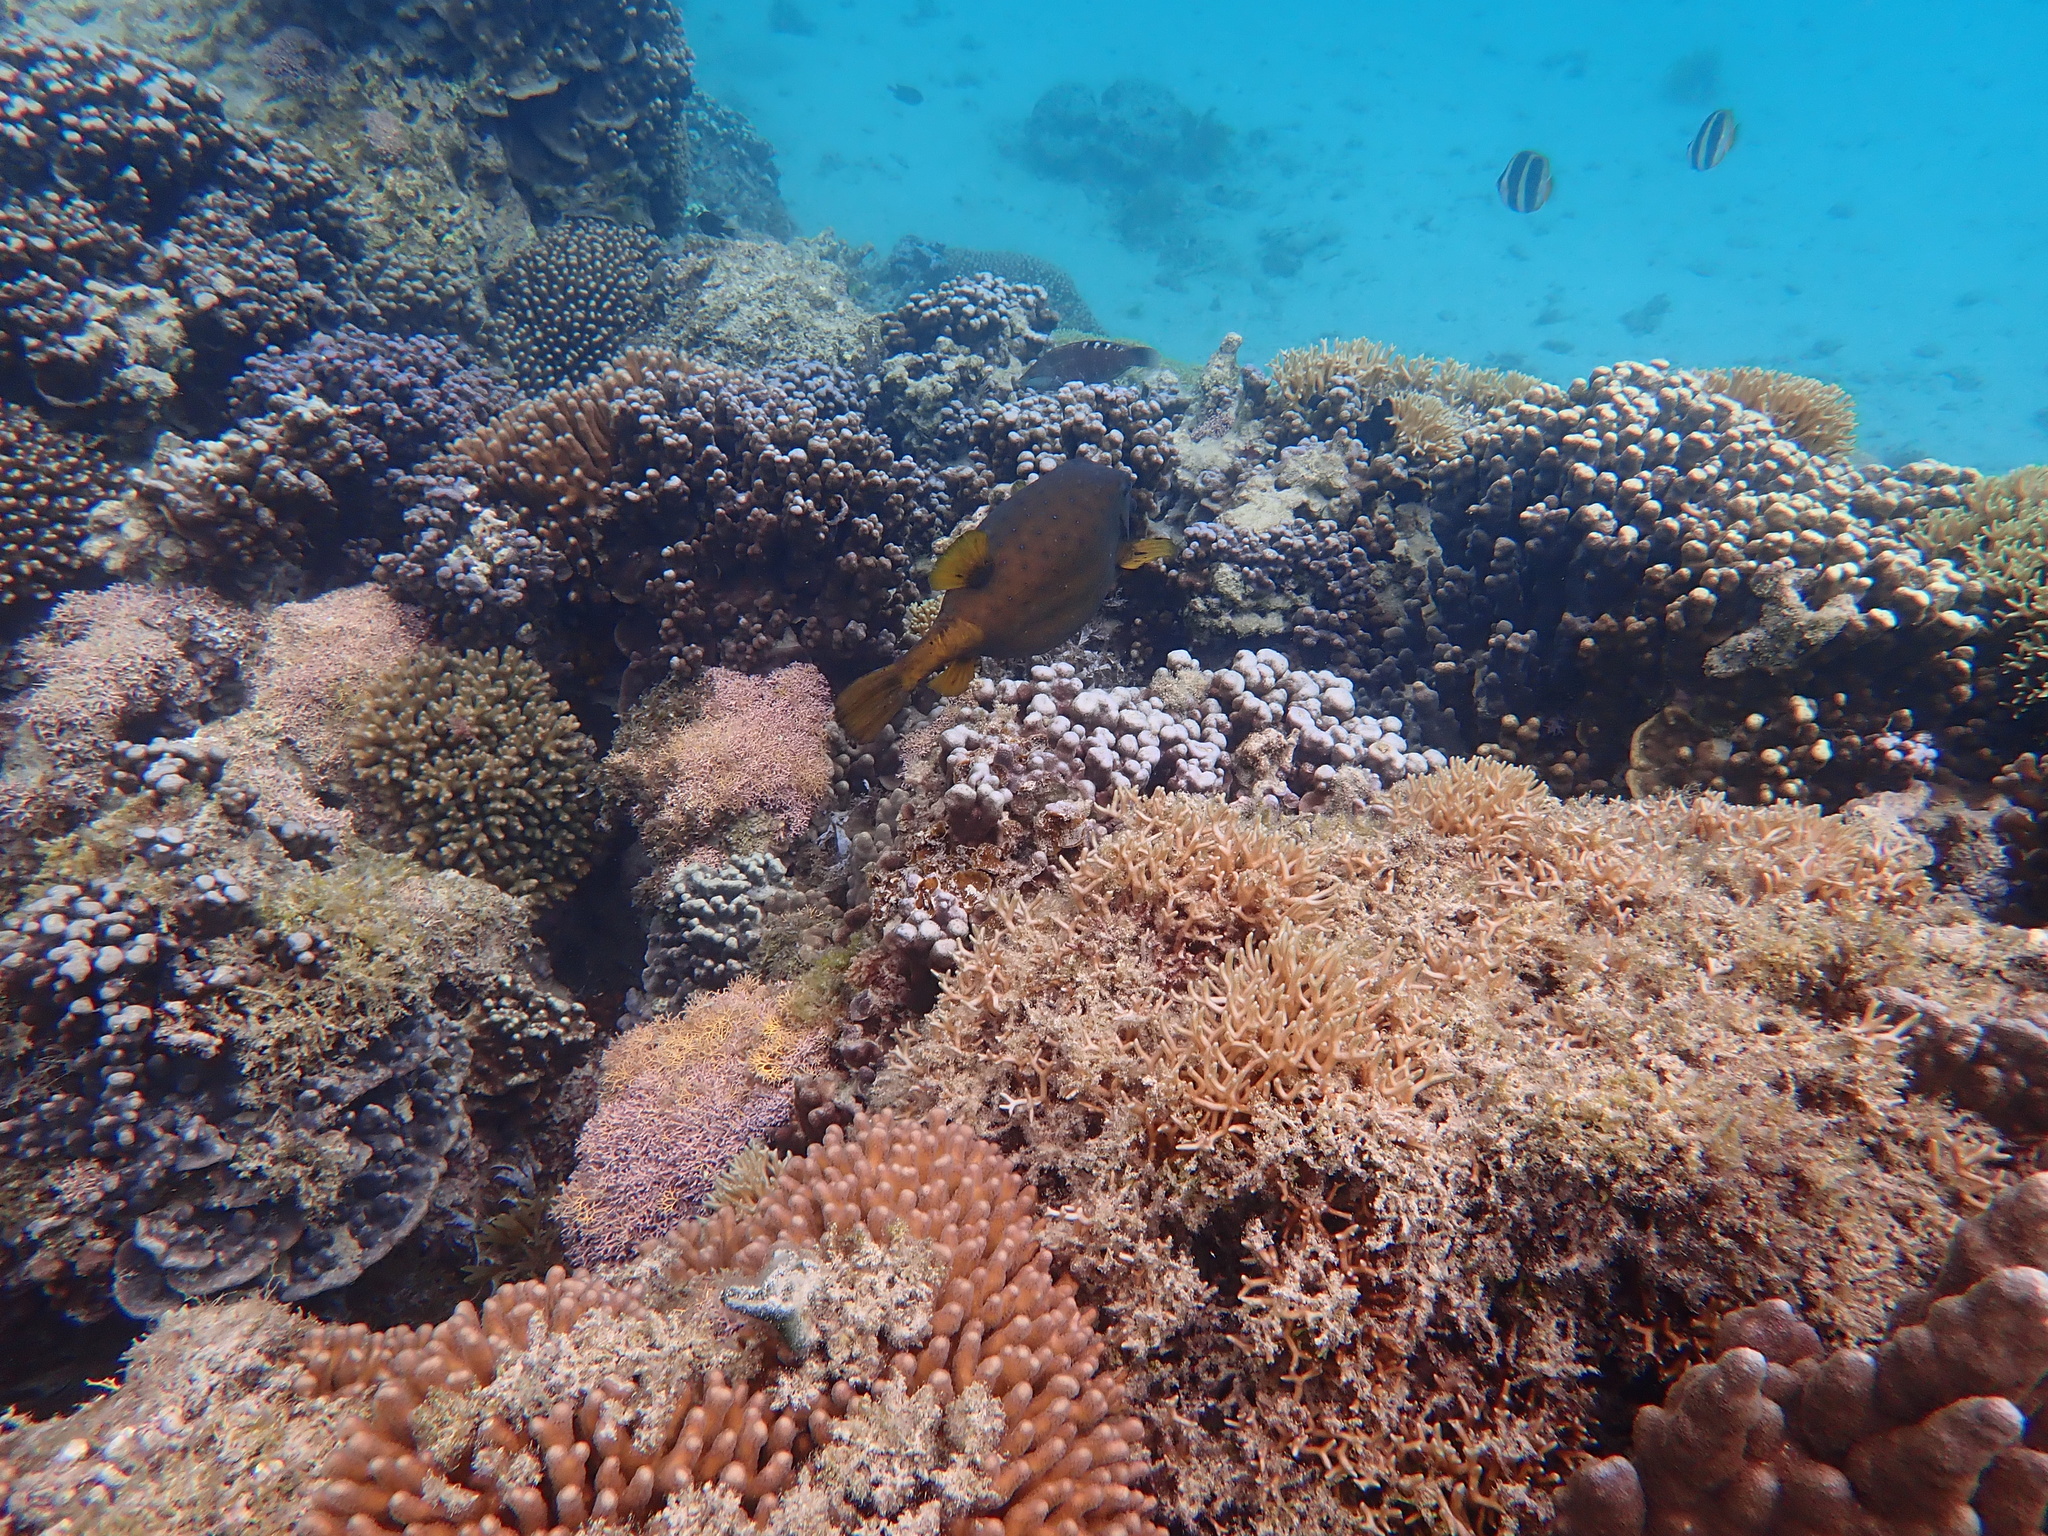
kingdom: Animalia
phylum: Chordata
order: Tetraodontiformes
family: Ostraciidae
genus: Ostracion
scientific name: Ostracion cubicus
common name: Cube trunkfish
